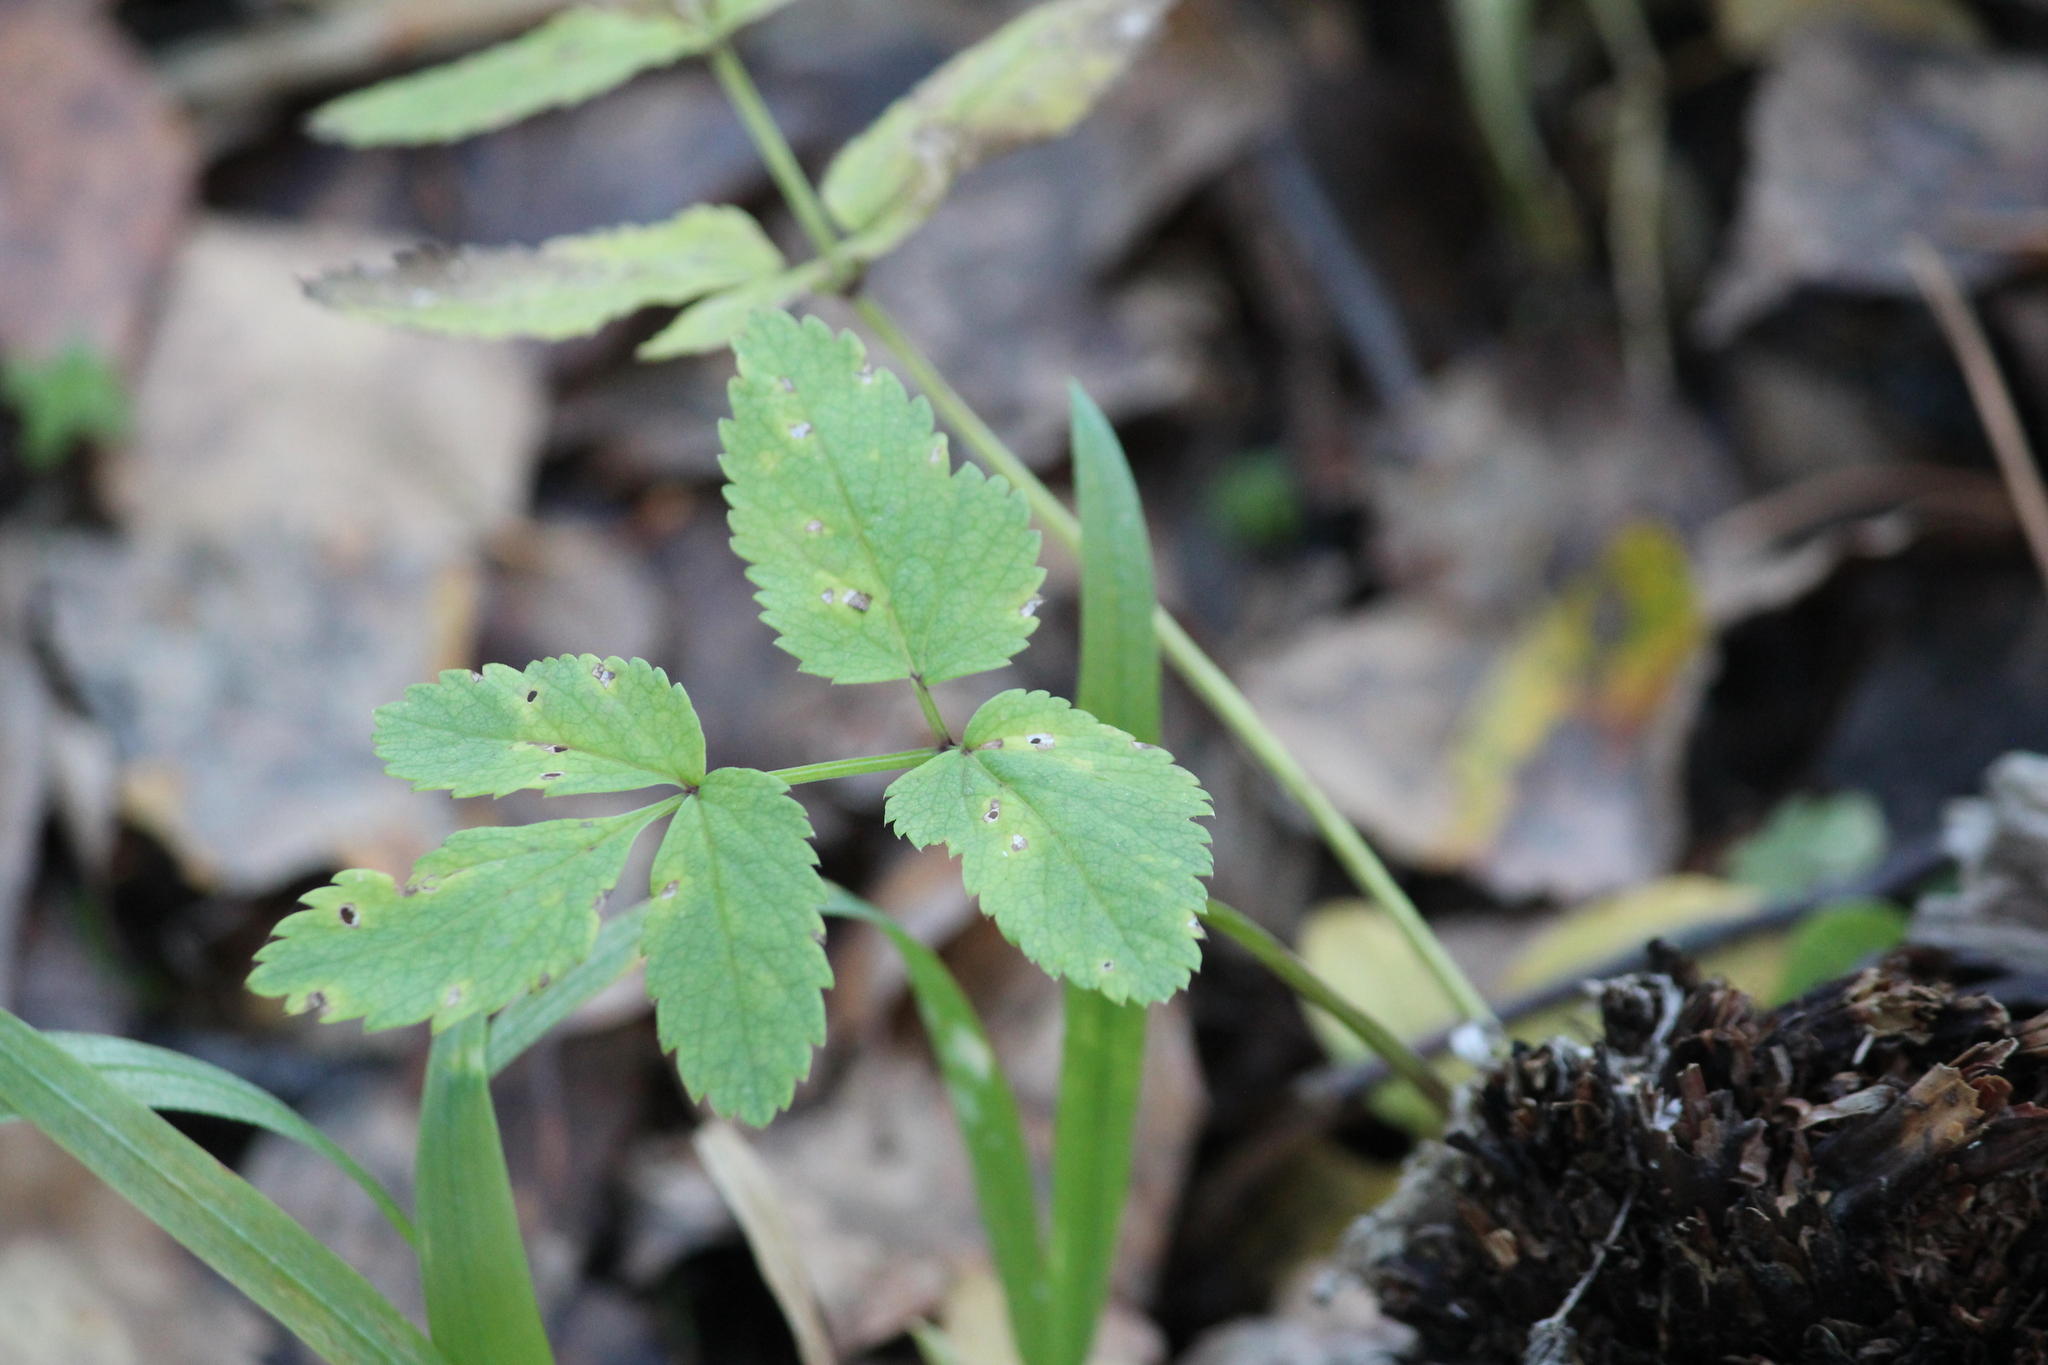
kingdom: Plantae
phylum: Tracheophyta
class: Magnoliopsida
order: Apiales
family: Apiaceae
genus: Angelica
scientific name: Angelica sylvestris
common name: Wild angelica
